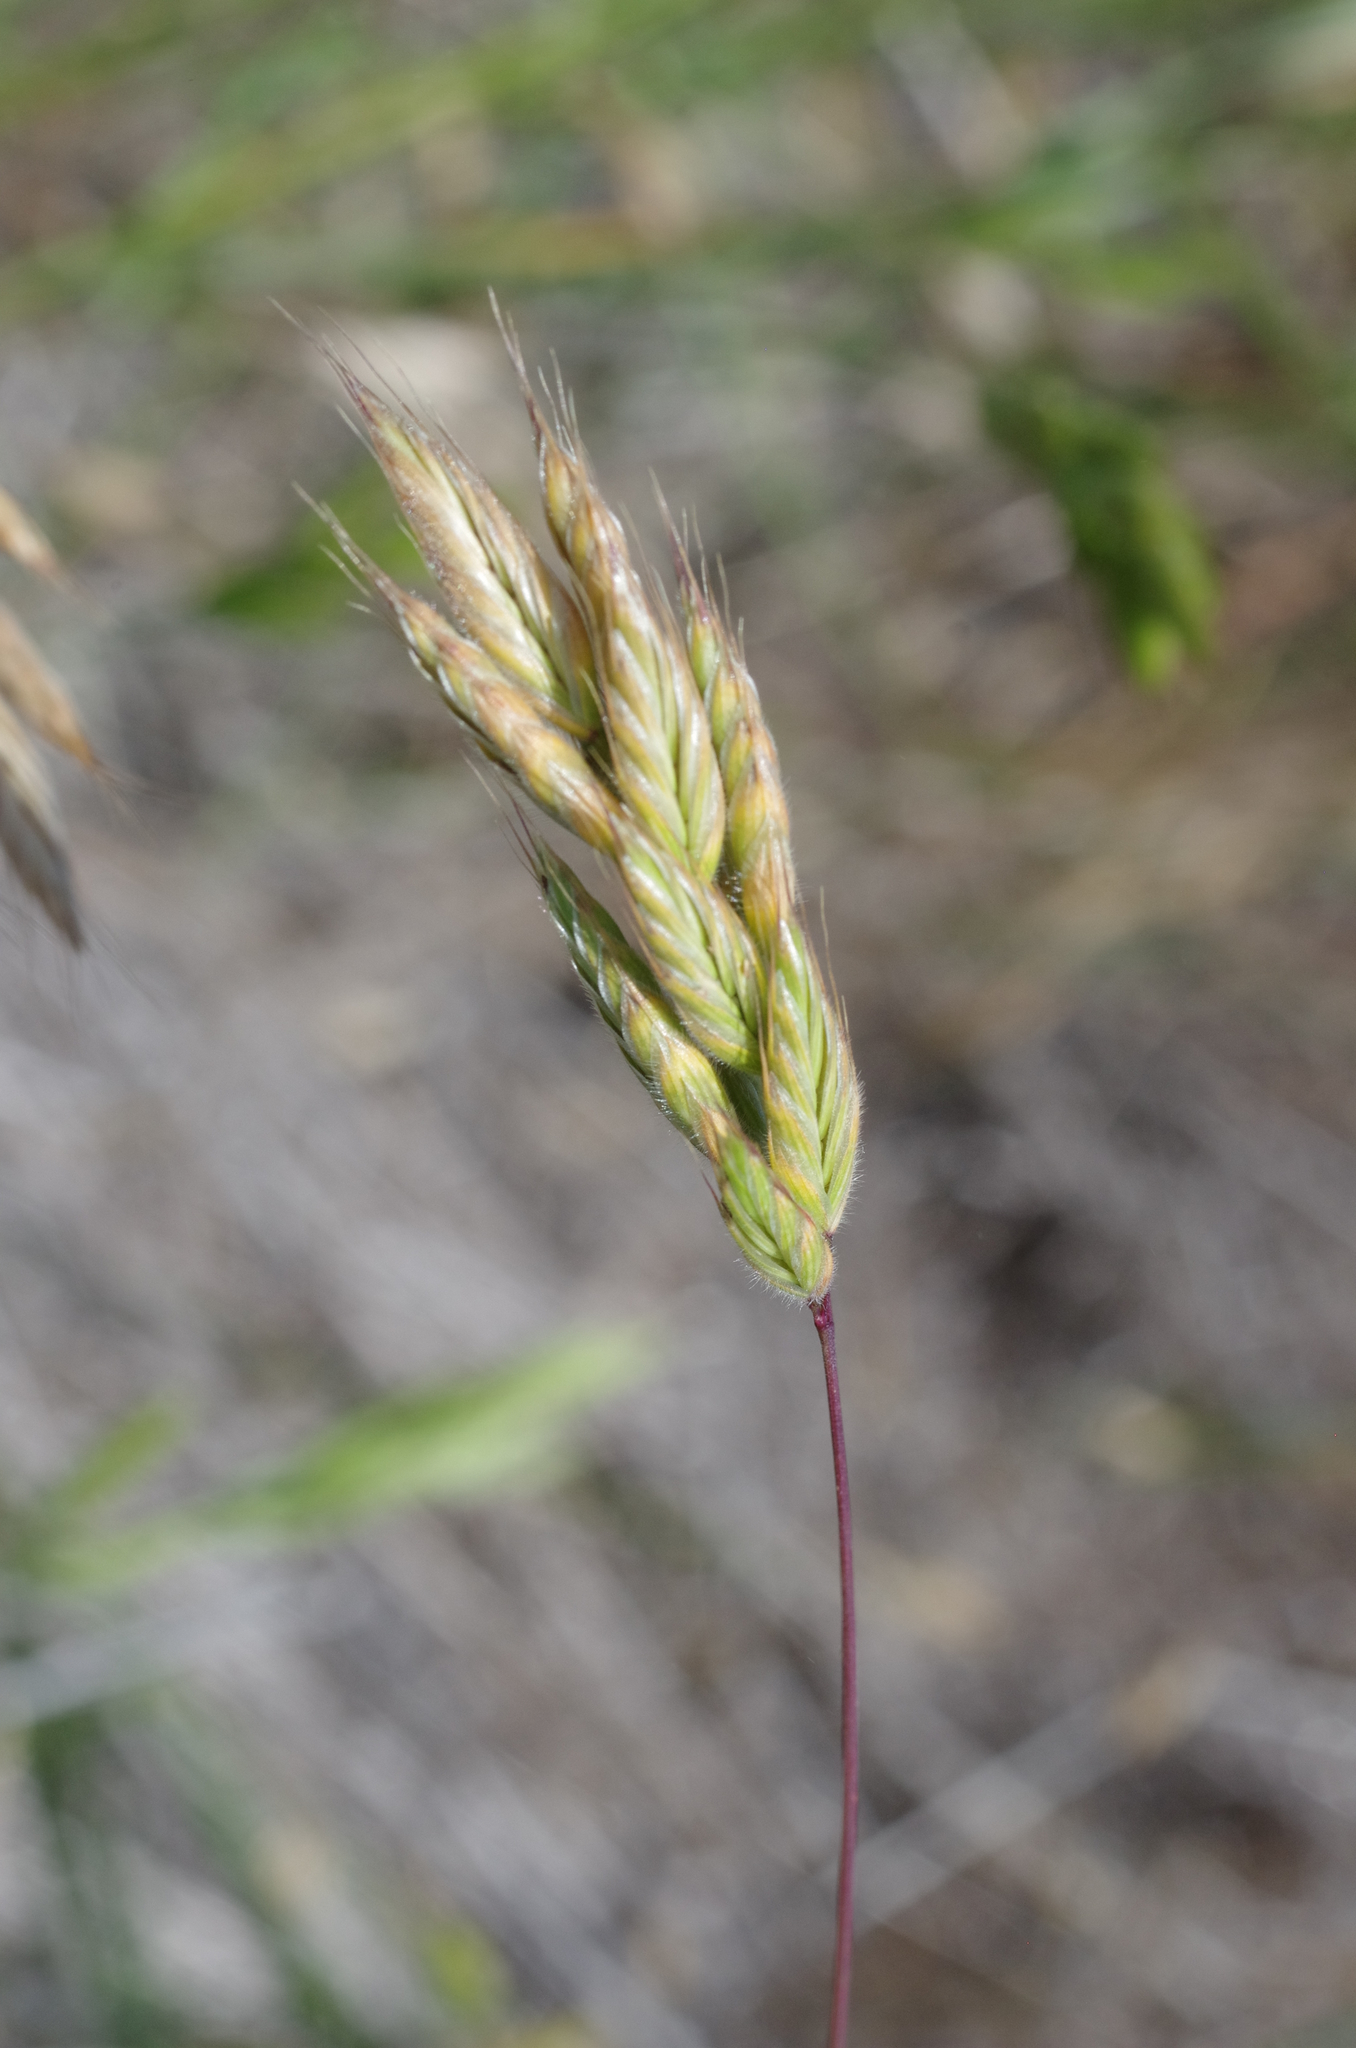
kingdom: Plantae
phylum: Tracheophyta
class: Liliopsida
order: Poales
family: Poaceae
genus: Bromus
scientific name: Bromus hordeaceus
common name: Soft brome
